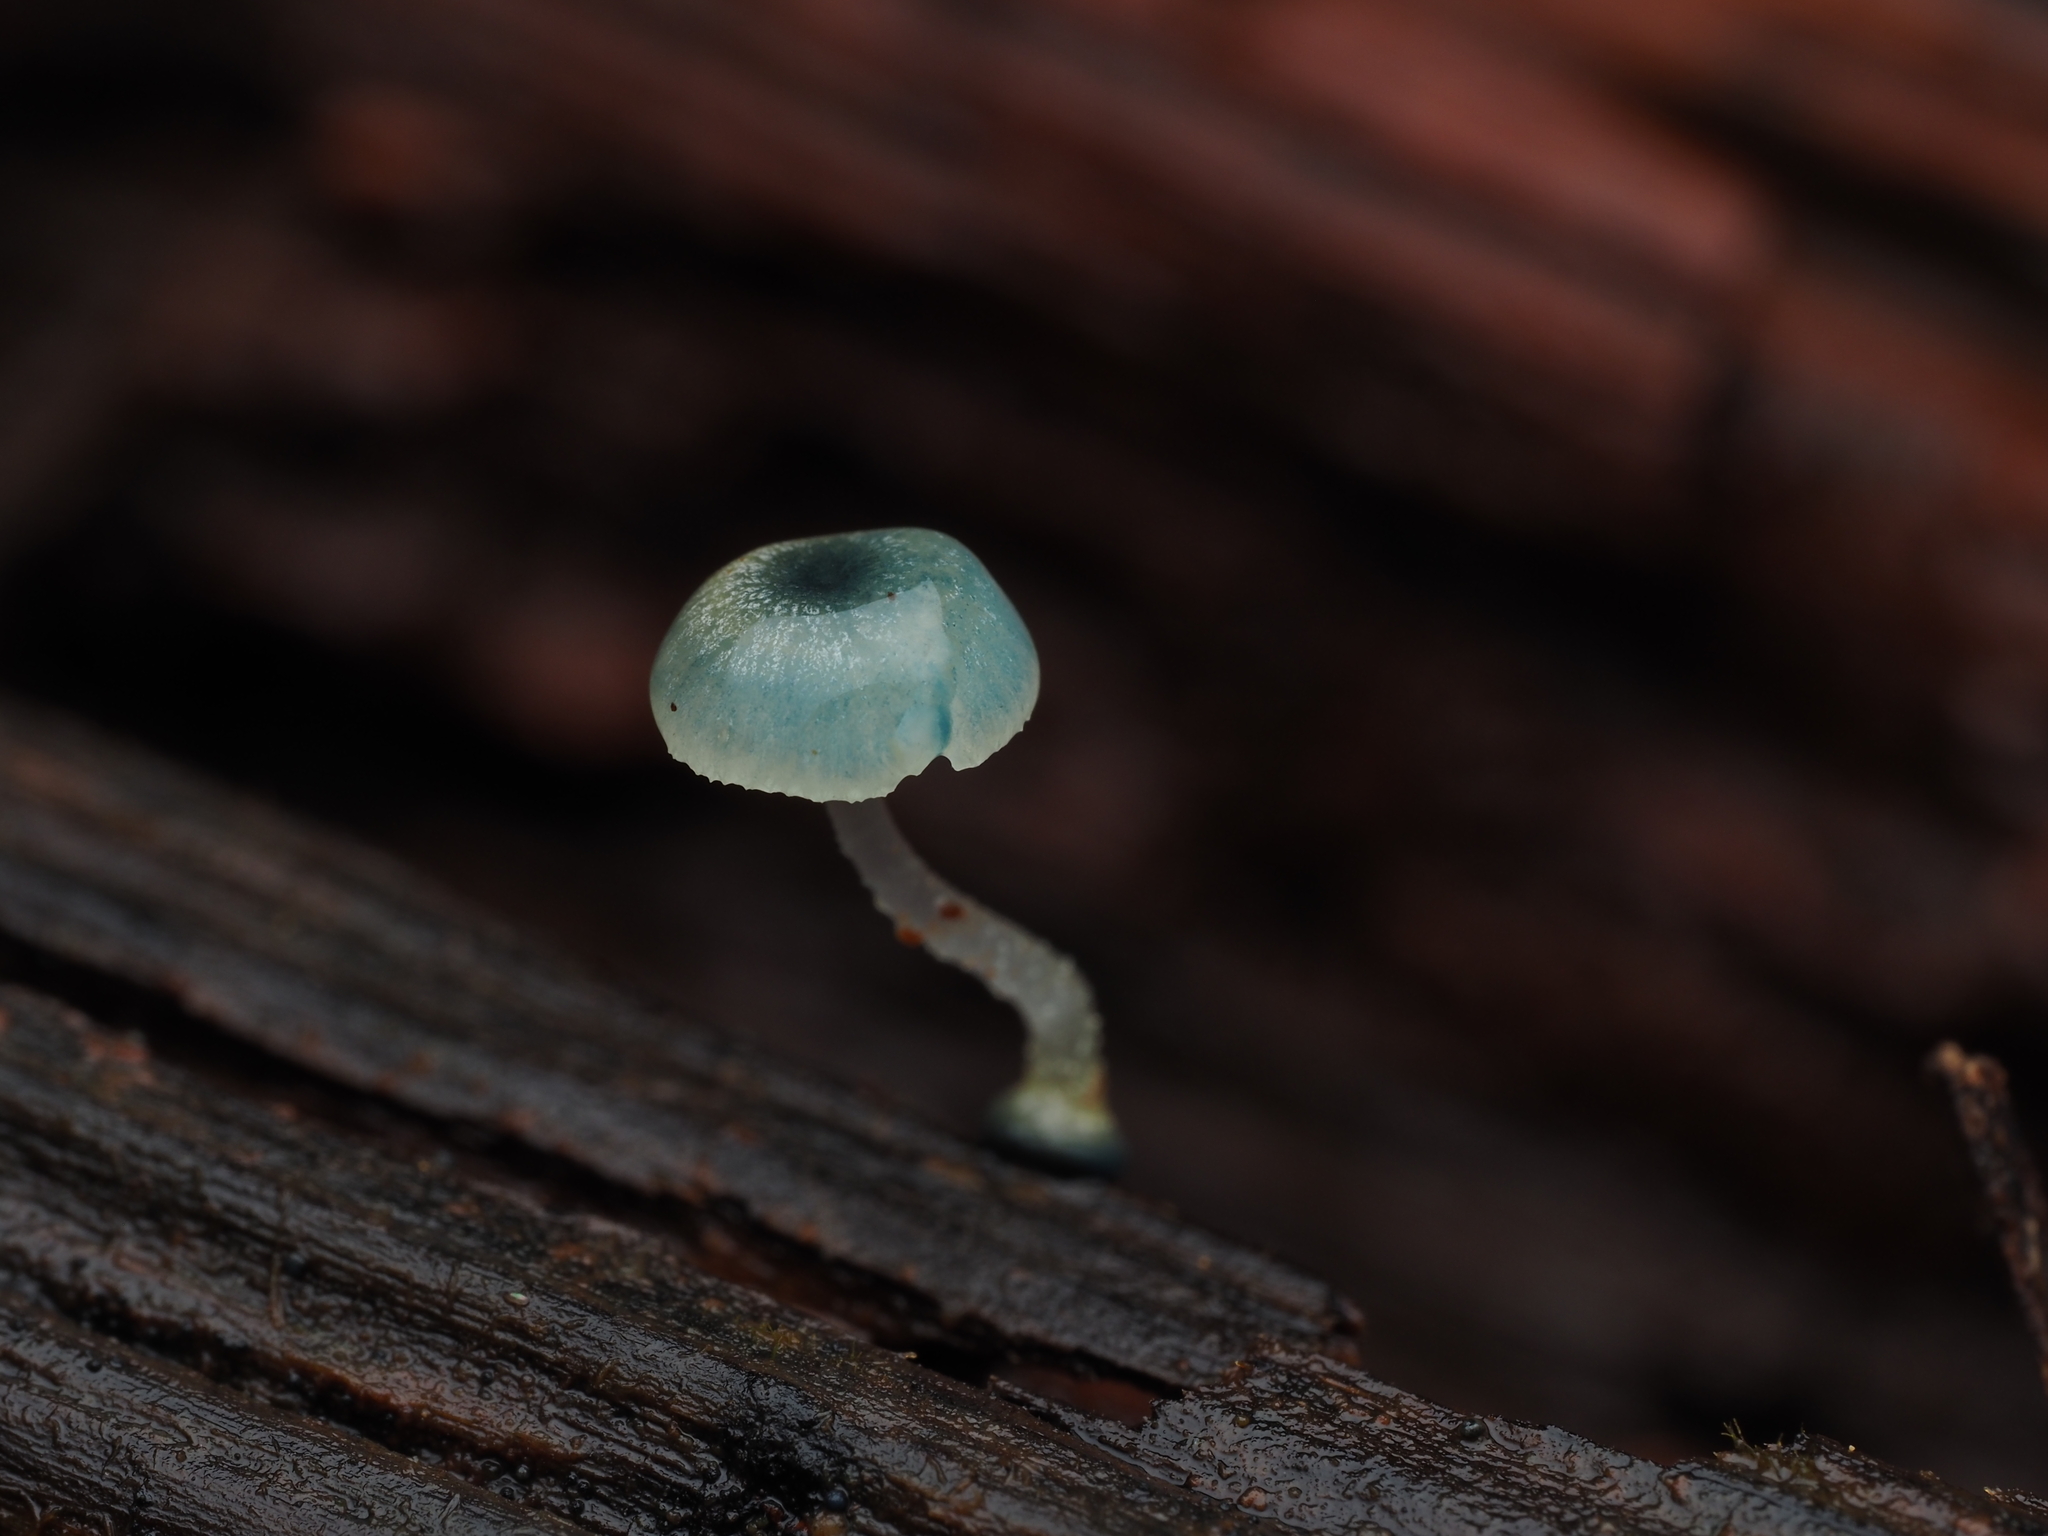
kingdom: Fungi
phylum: Basidiomycota
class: Agaricomycetes
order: Agaricales
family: Mycenaceae
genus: Mycena
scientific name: Mycena interrupta
